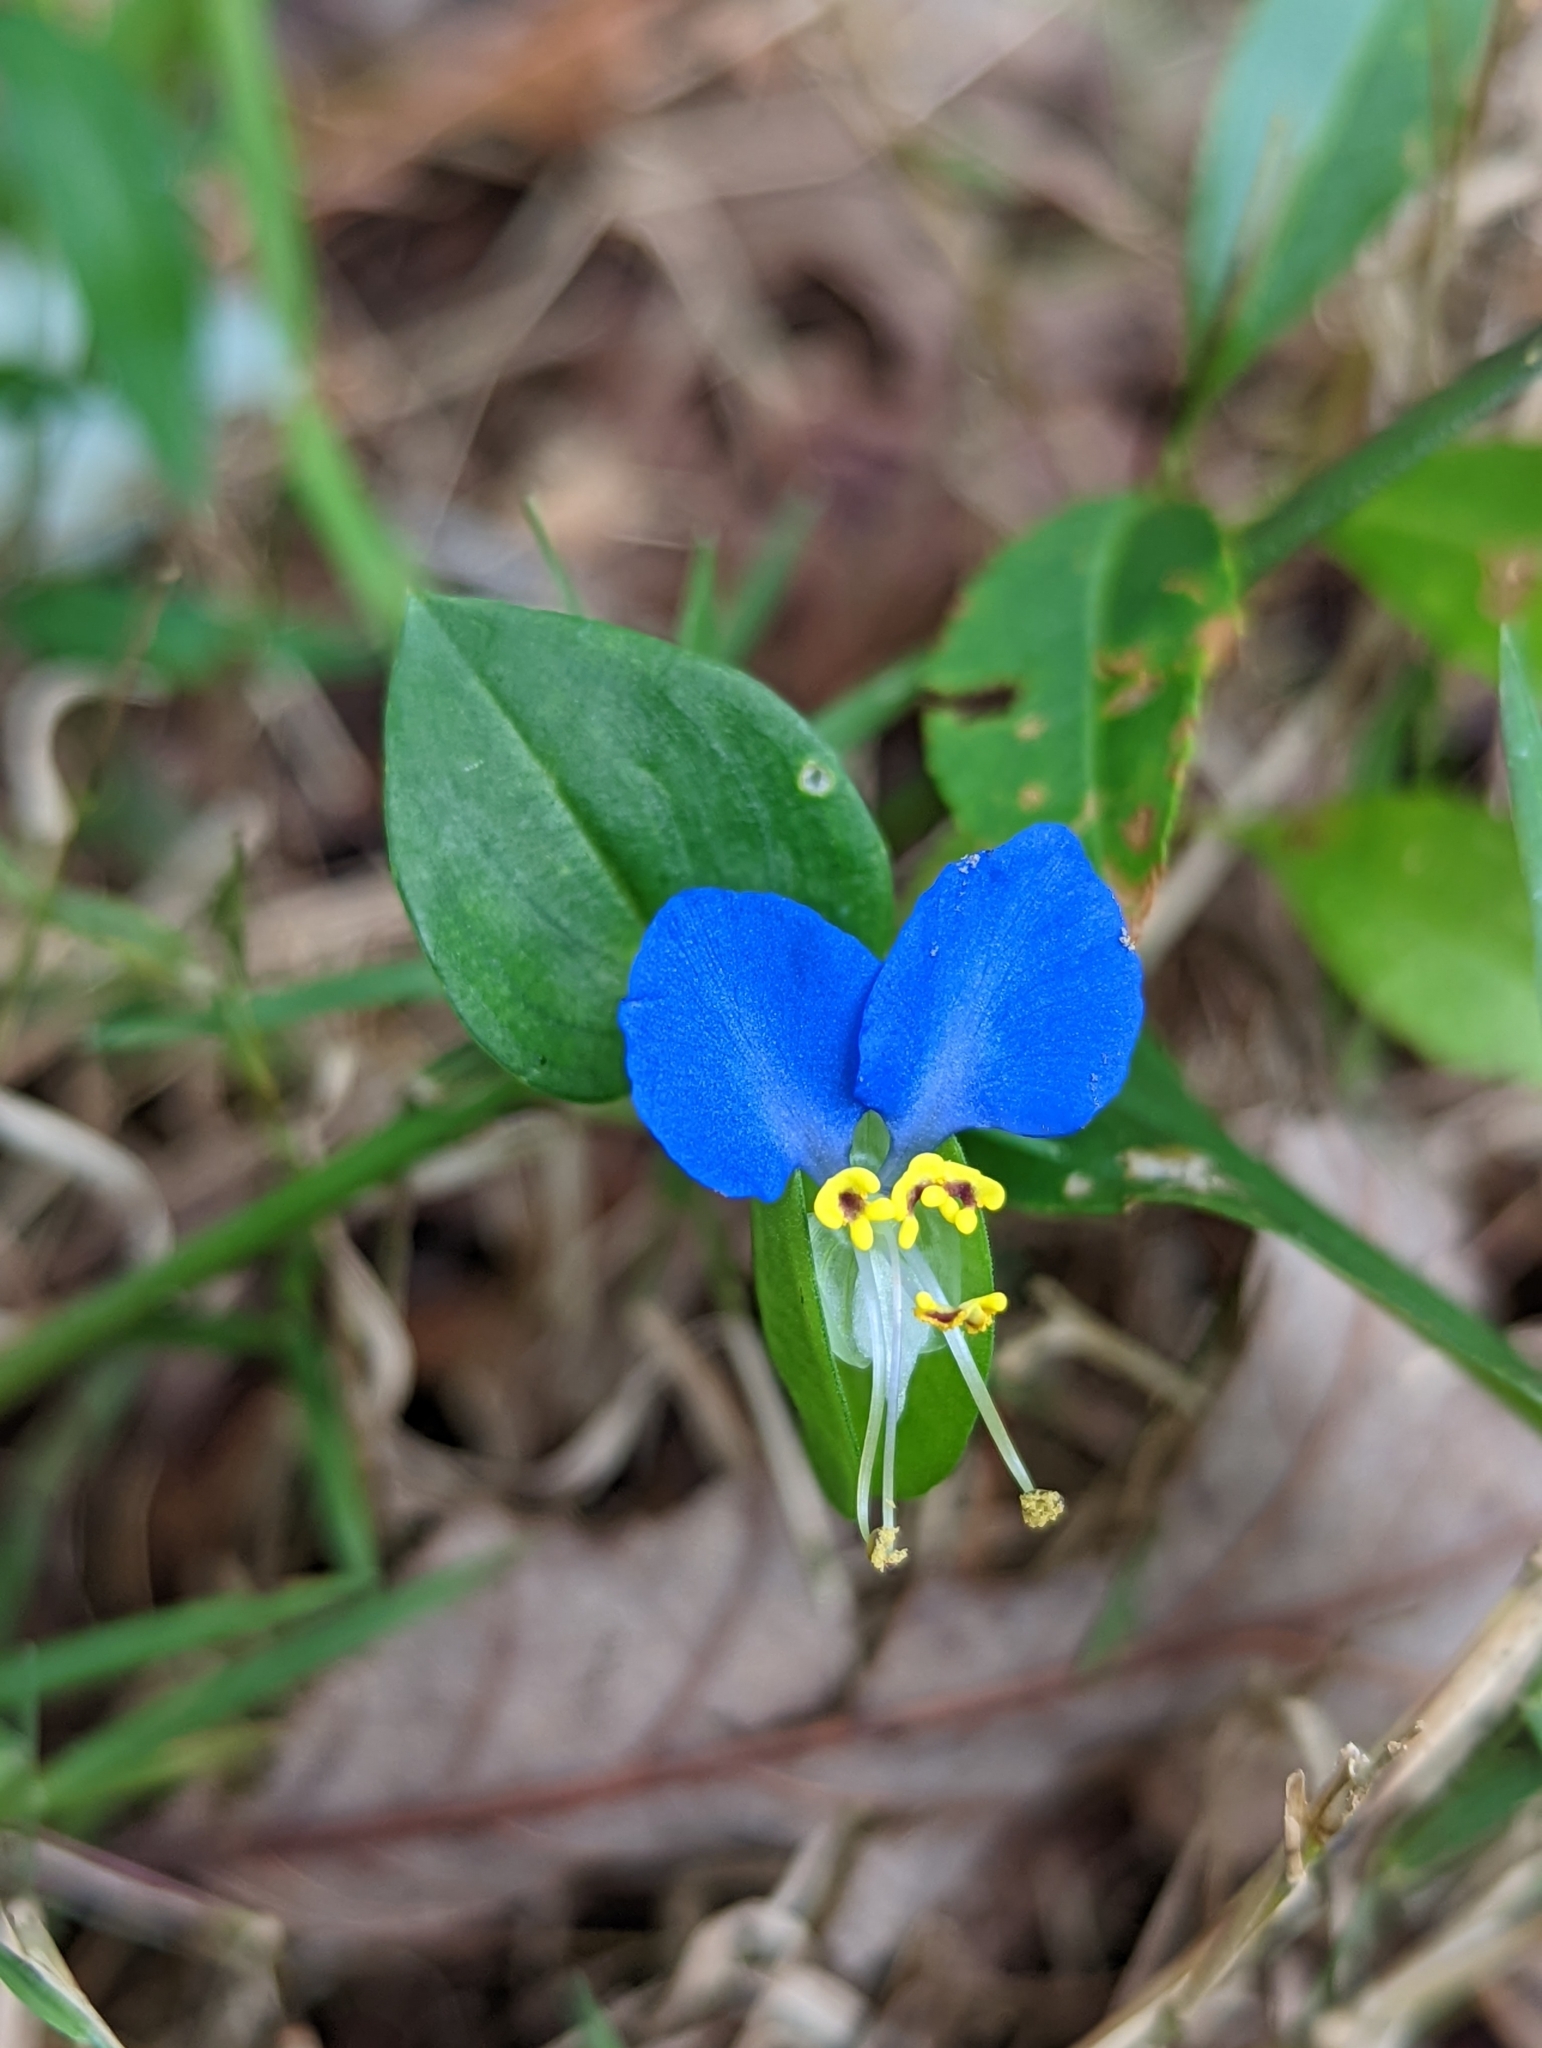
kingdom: Plantae
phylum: Tracheophyta
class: Liliopsida
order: Commelinales
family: Commelinaceae
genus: Commelina
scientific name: Commelina communis
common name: Asiatic dayflower
